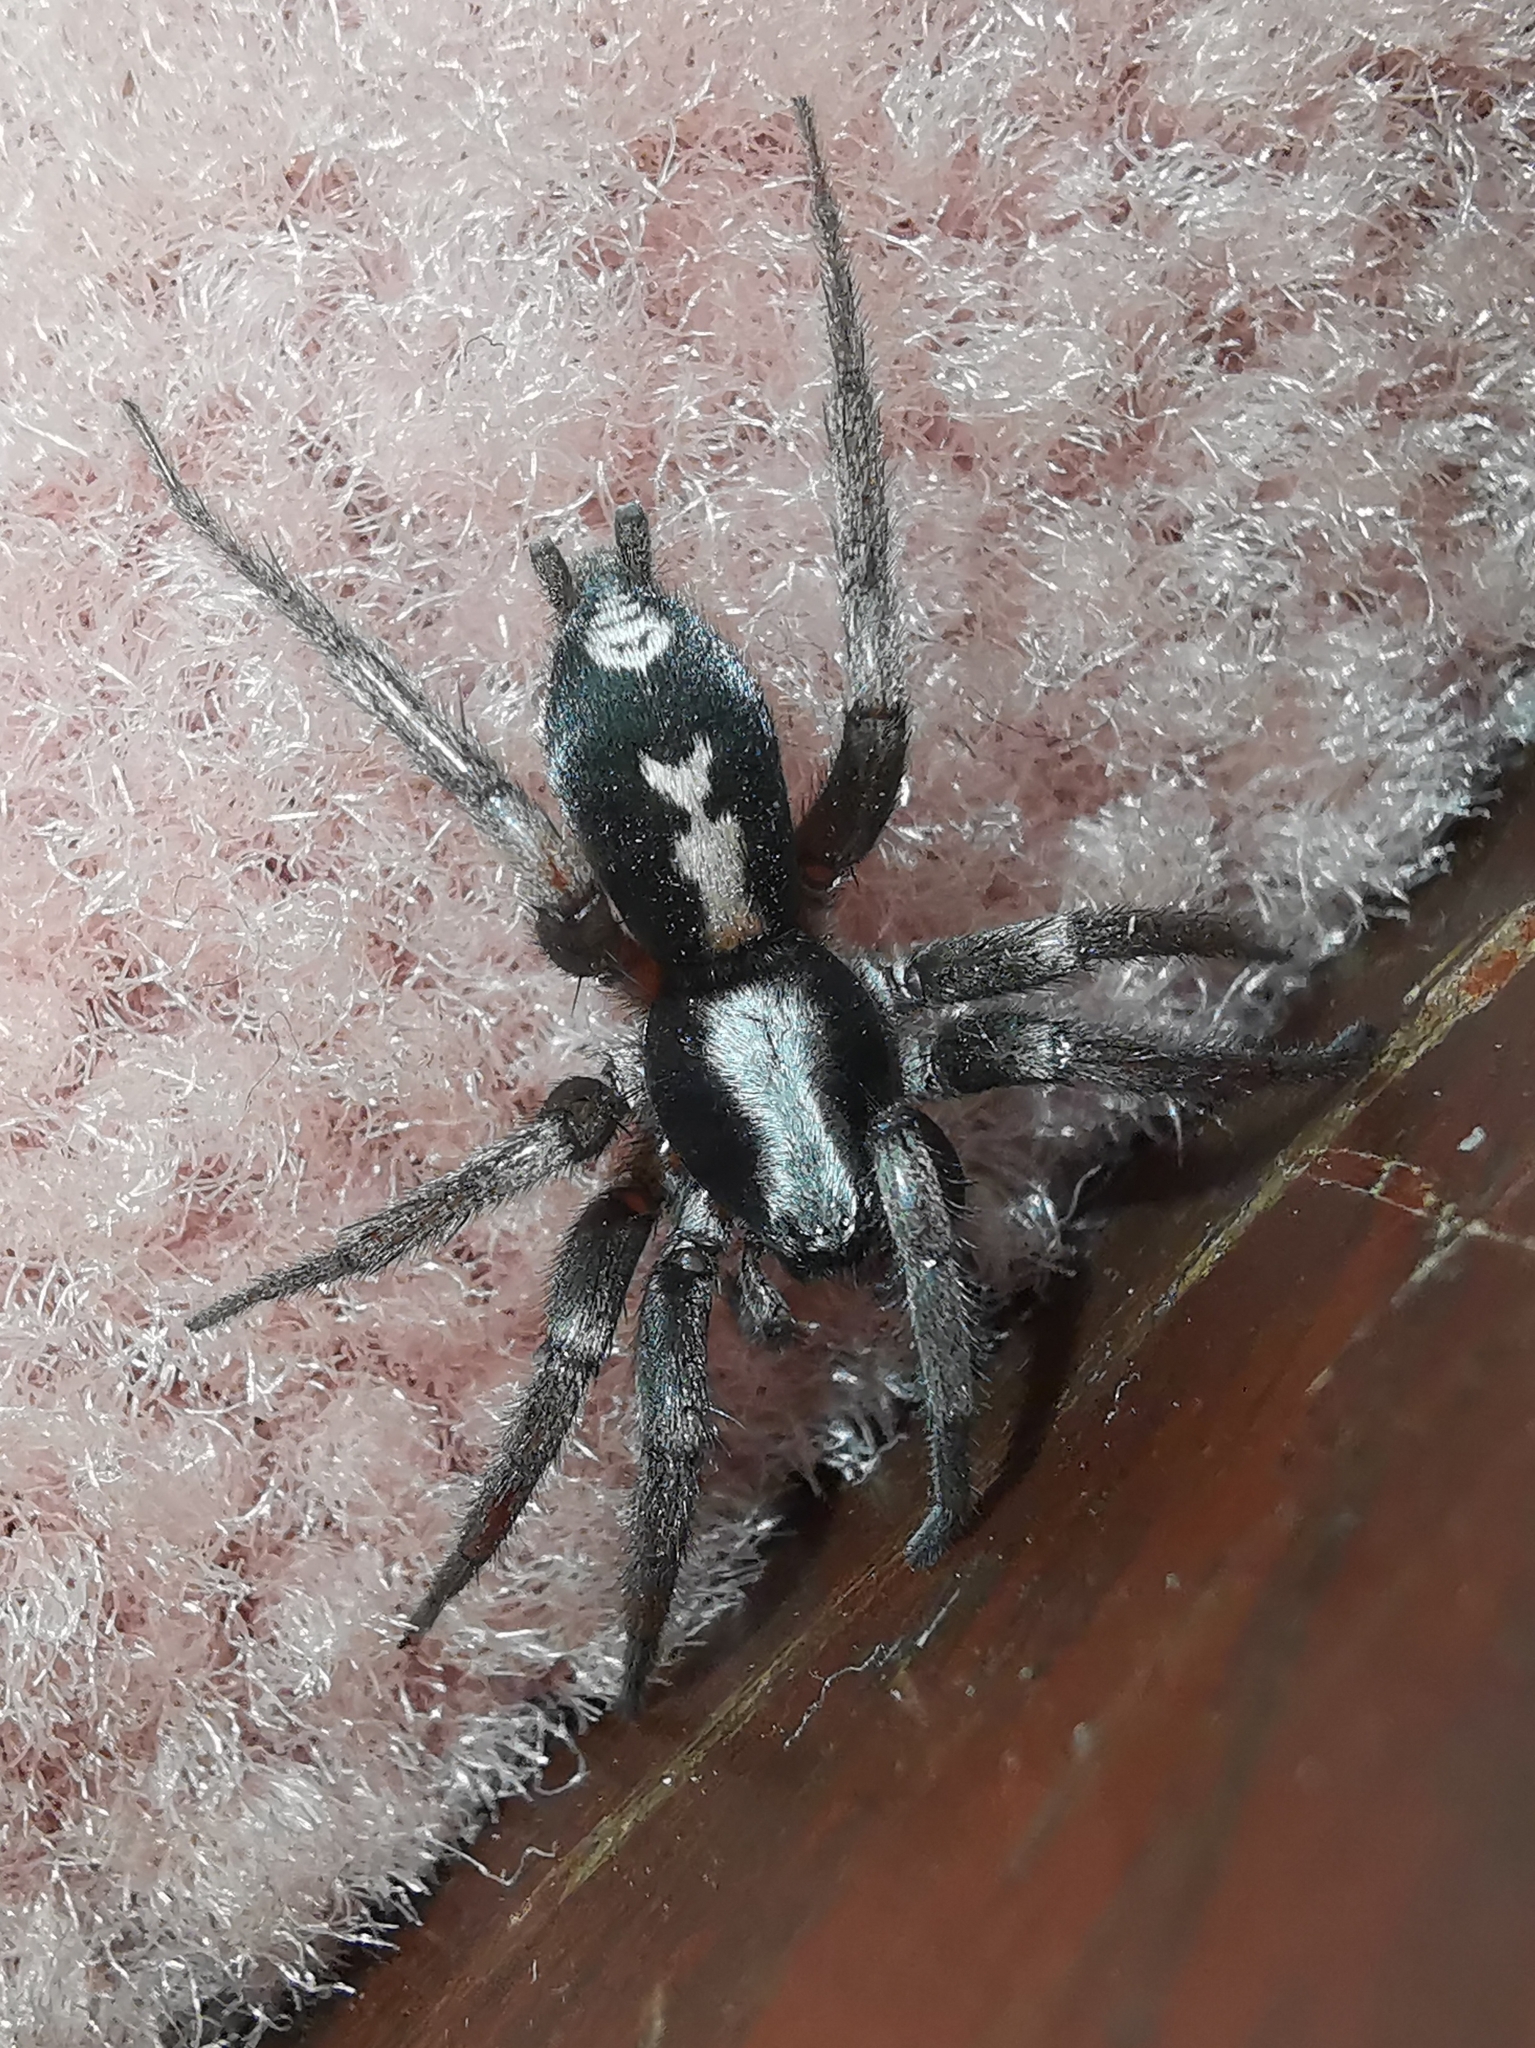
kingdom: Animalia
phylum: Arthropoda
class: Arachnida
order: Araneae
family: Gnaphosidae
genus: Herpyllus
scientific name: Herpyllus ecclesiasticus
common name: Eastern parson spider
